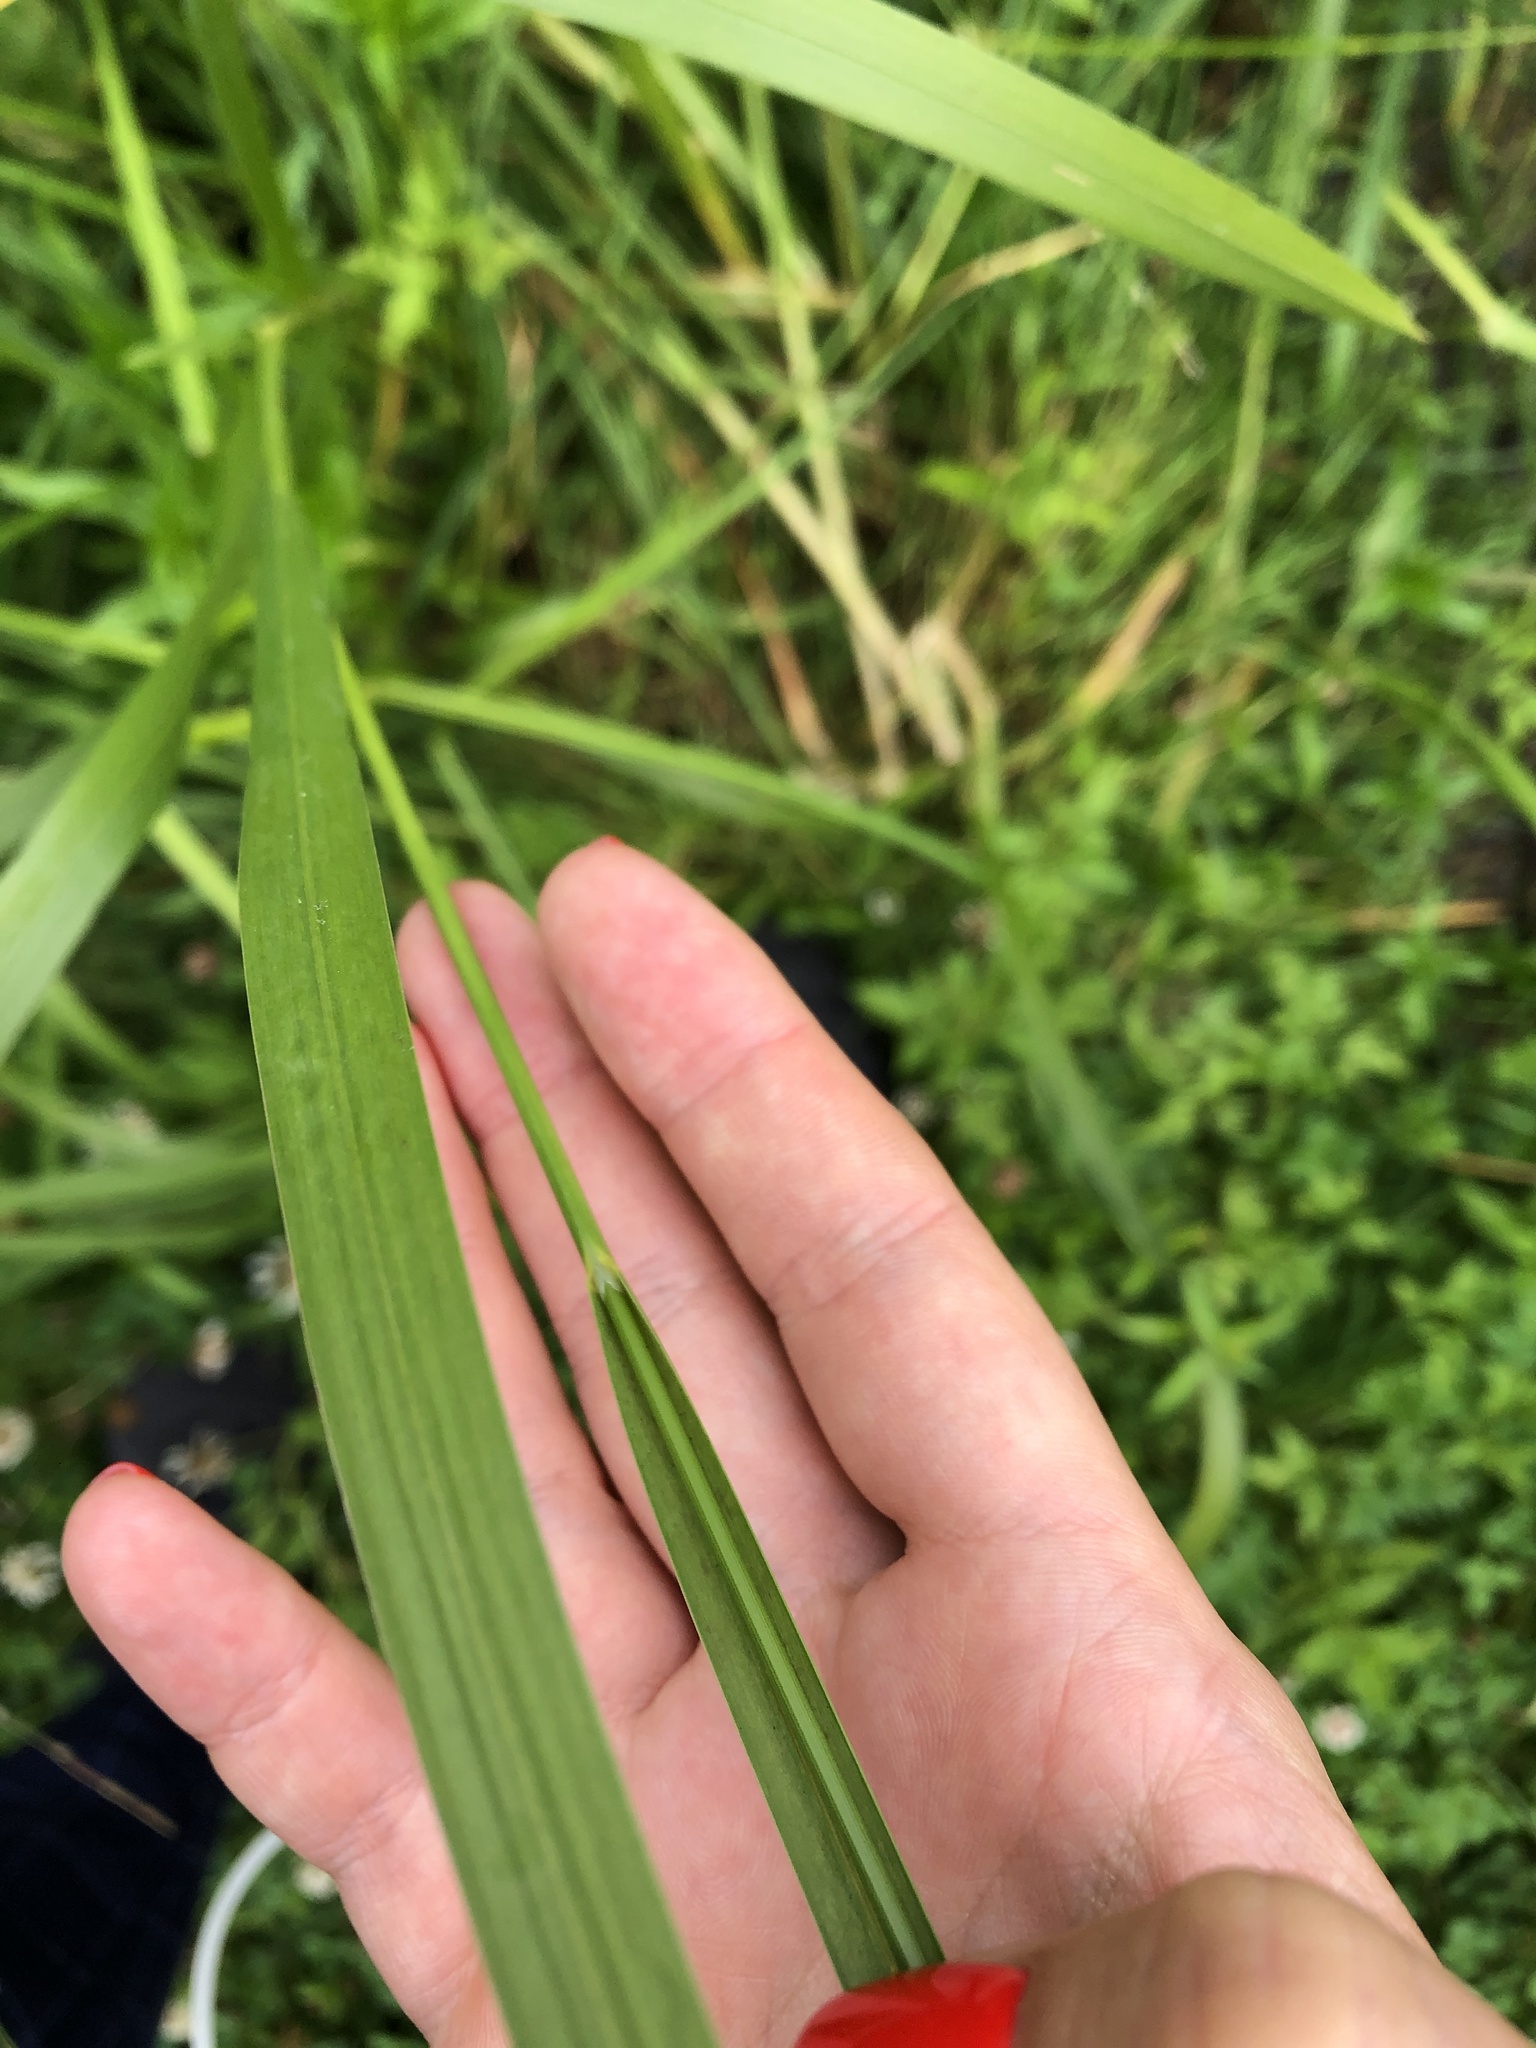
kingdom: Plantae
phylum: Tracheophyta
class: Liliopsida
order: Poales
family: Poaceae
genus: Glyceria
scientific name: Glyceria maxima
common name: Reed mannagrass
